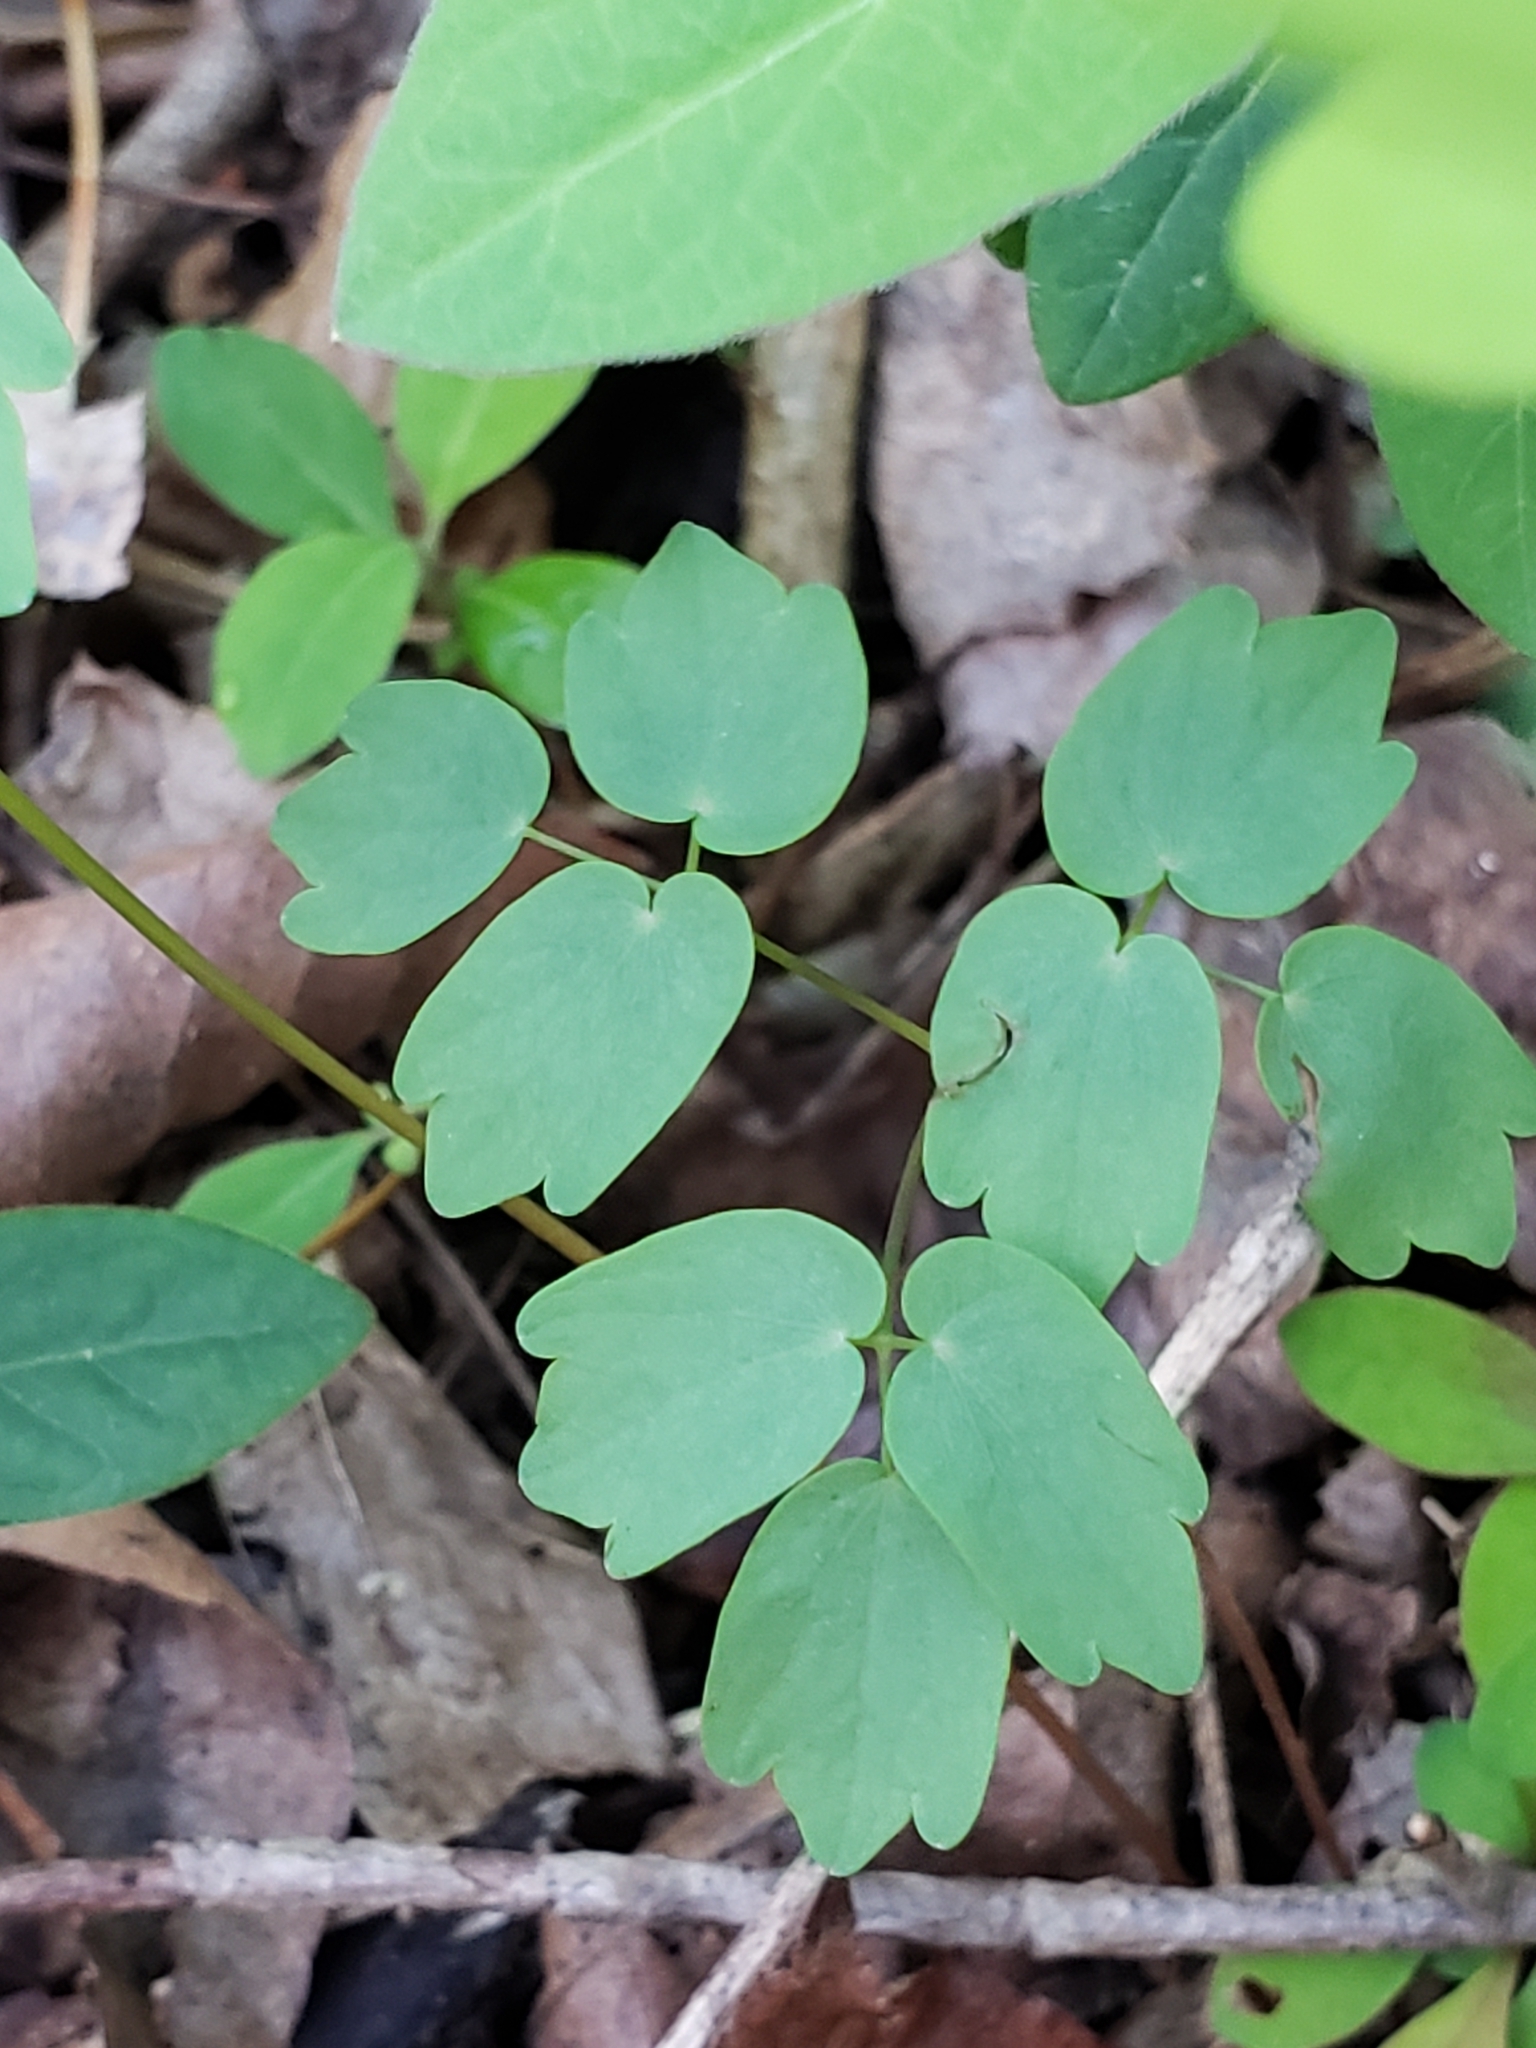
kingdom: Plantae
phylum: Tracheophyta
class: Magnoliopsida
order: Ranunculales
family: Ranunculaceae
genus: Thalictrum
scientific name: Thalictrum thalictroides
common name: Rue-anemone
